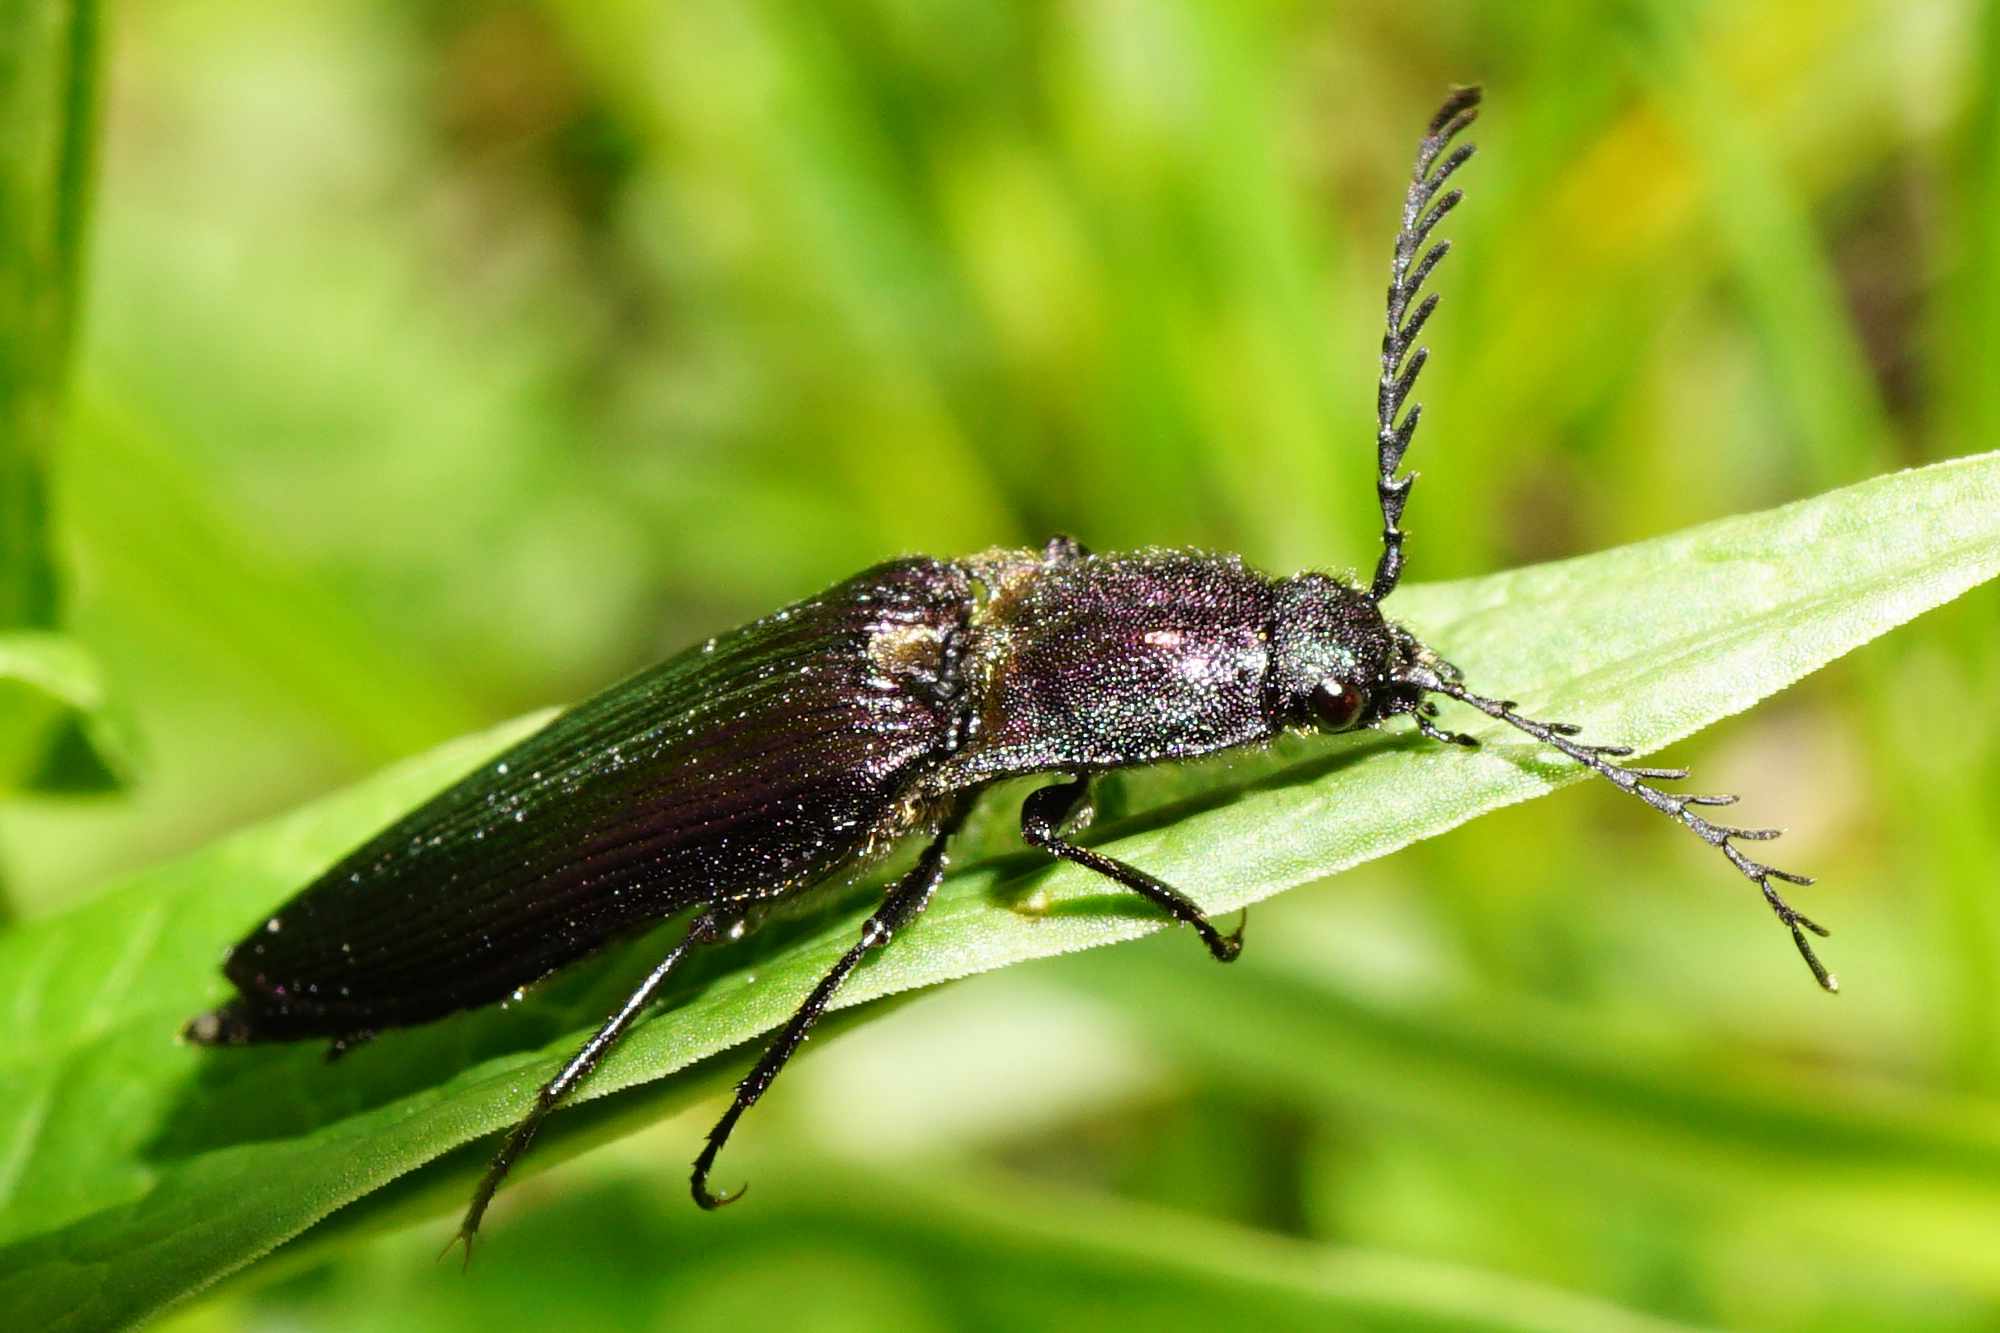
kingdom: Animalia
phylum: Arthropoda
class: Insecta
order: Coleoptera
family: Elateridae
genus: Ctenicera
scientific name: Ctenicera cuprea
